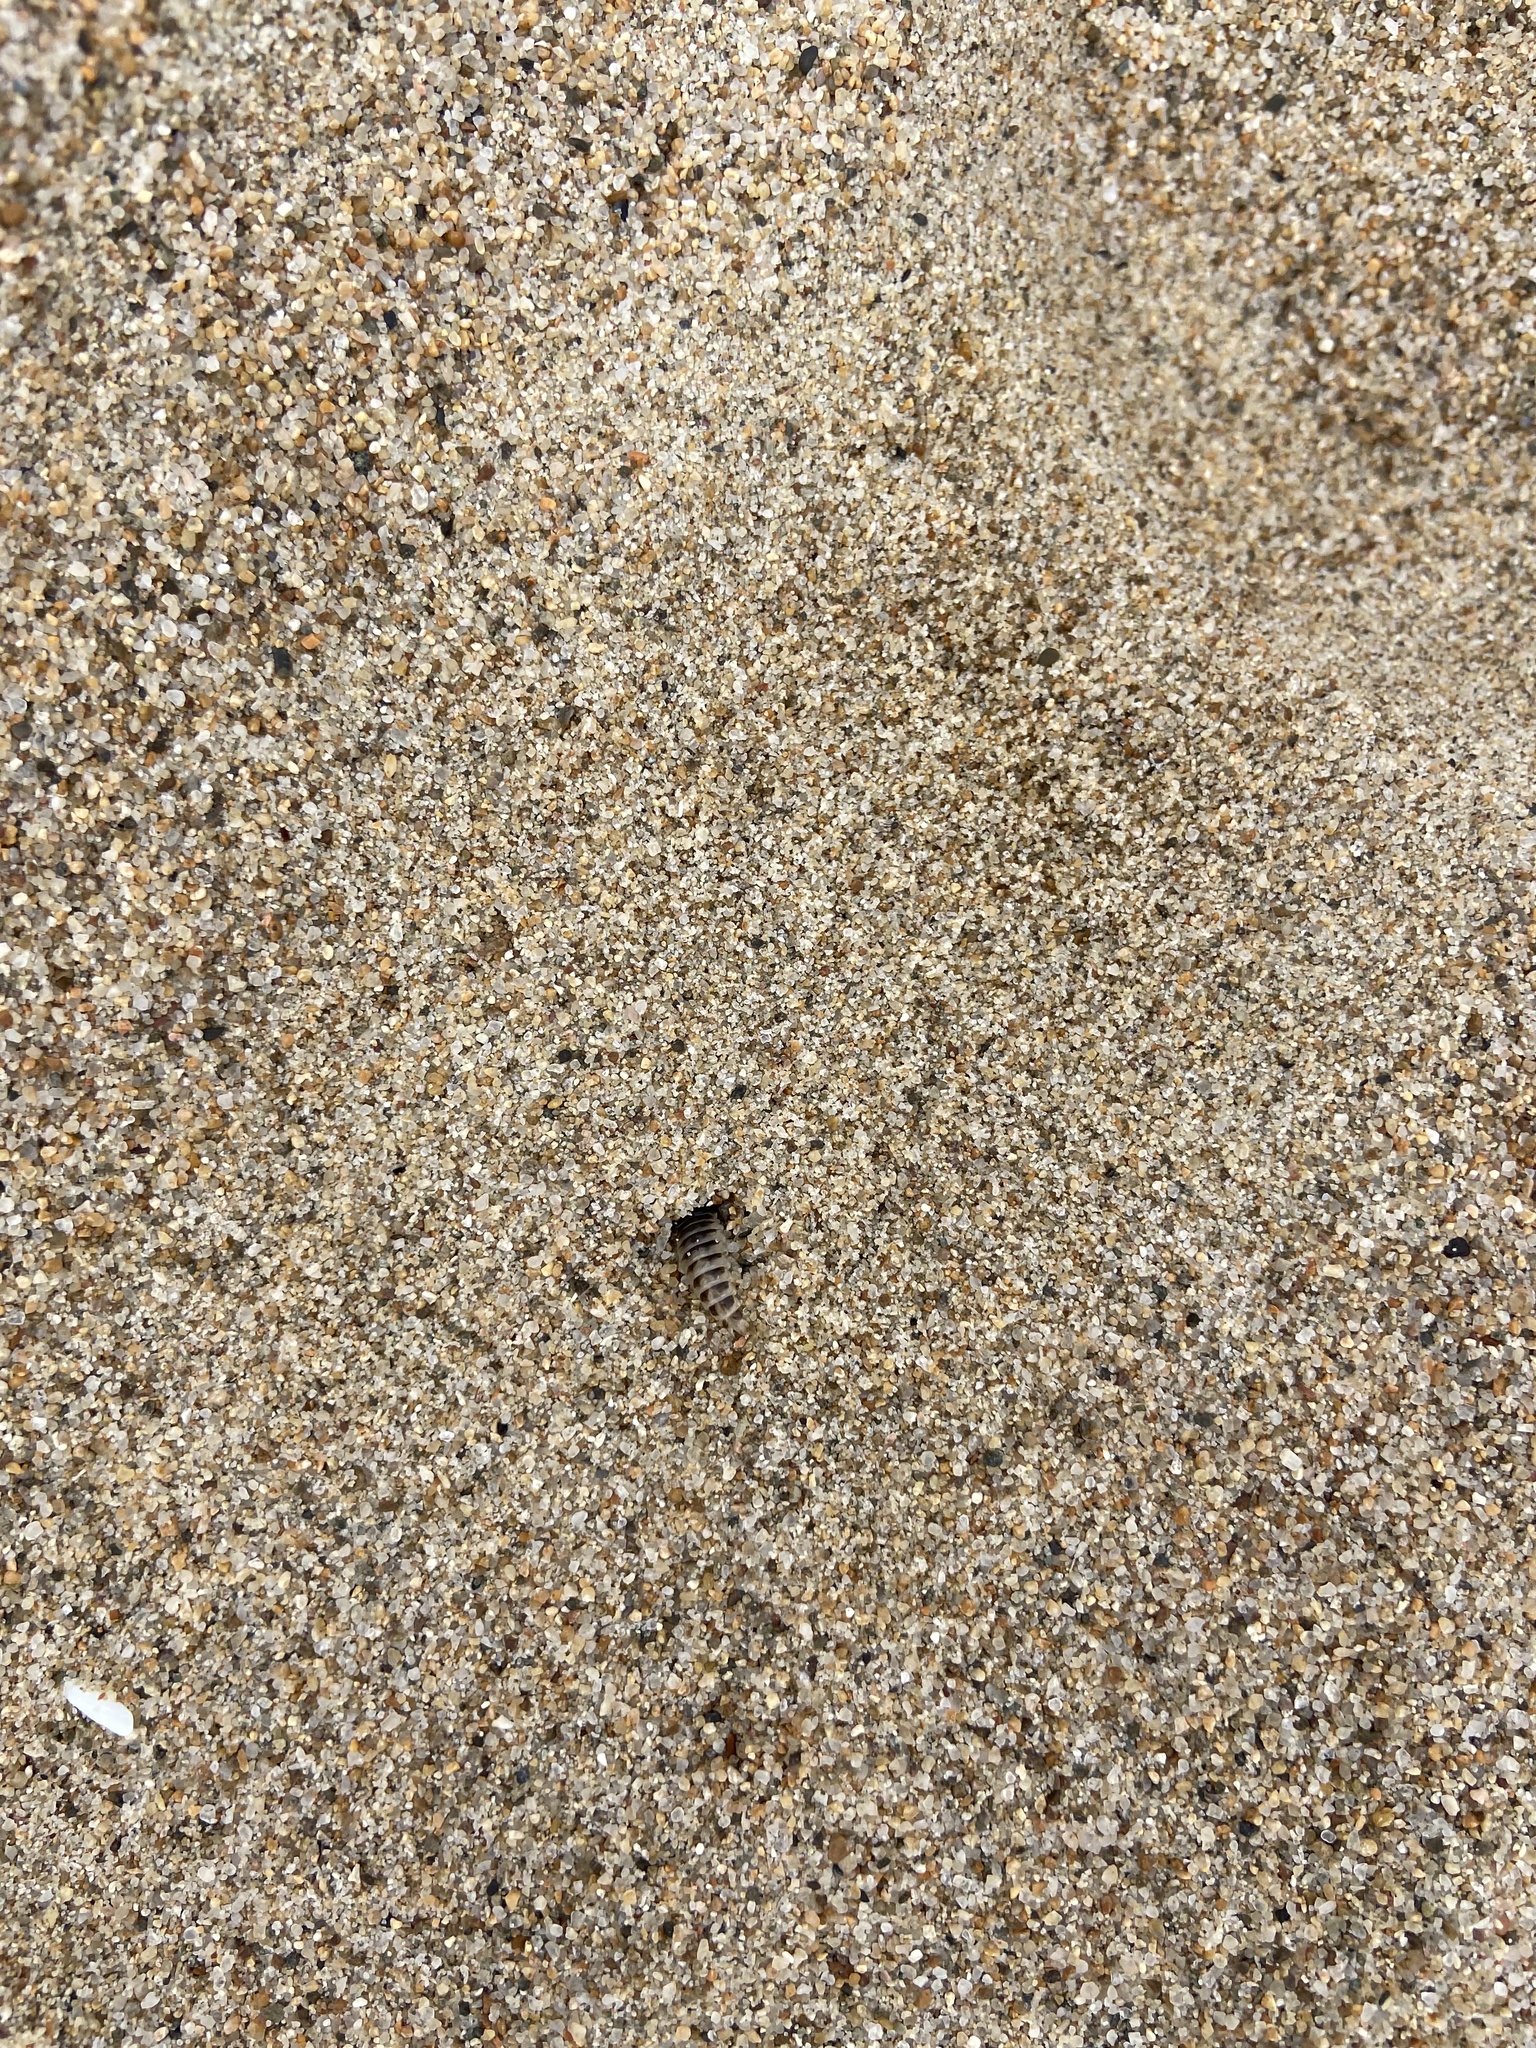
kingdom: Animalia
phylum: Arthropoda
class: Insecta
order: Coleoptera
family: Staphylinidae
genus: Thinopinus
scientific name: Thinopinus pictus
